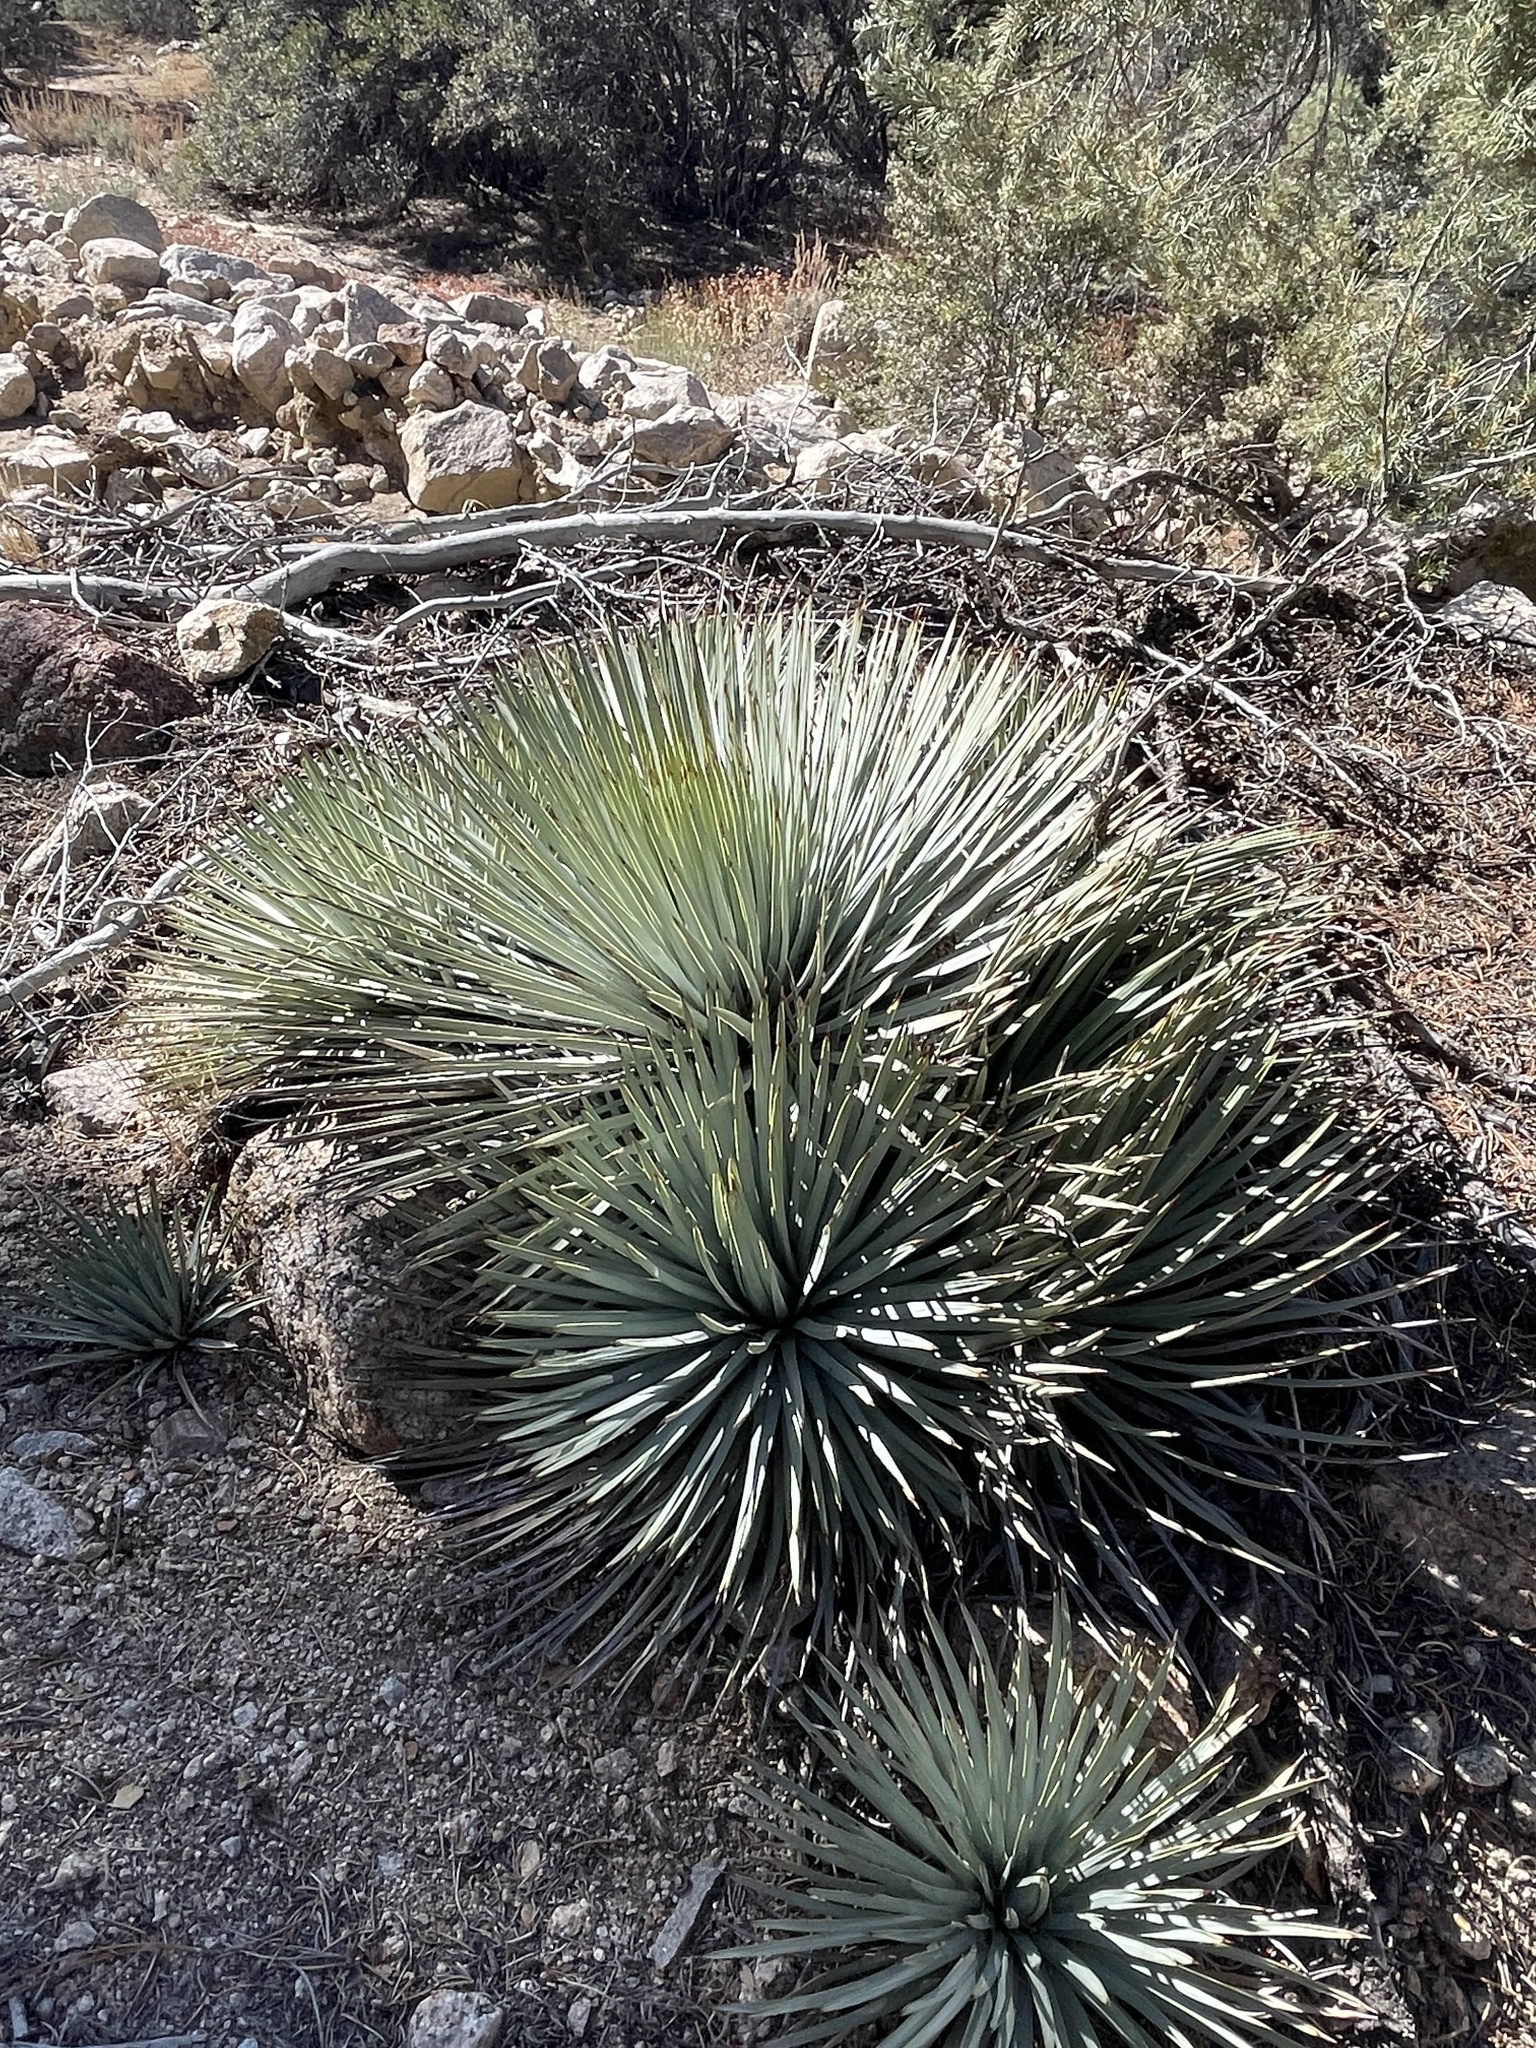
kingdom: Plantae
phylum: Tracheophyta
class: Liliopsida
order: Asparagales
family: Asparagaceae
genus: Hesperoyucca
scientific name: Hesperoyucca whipplei
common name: Our lord's-candle
